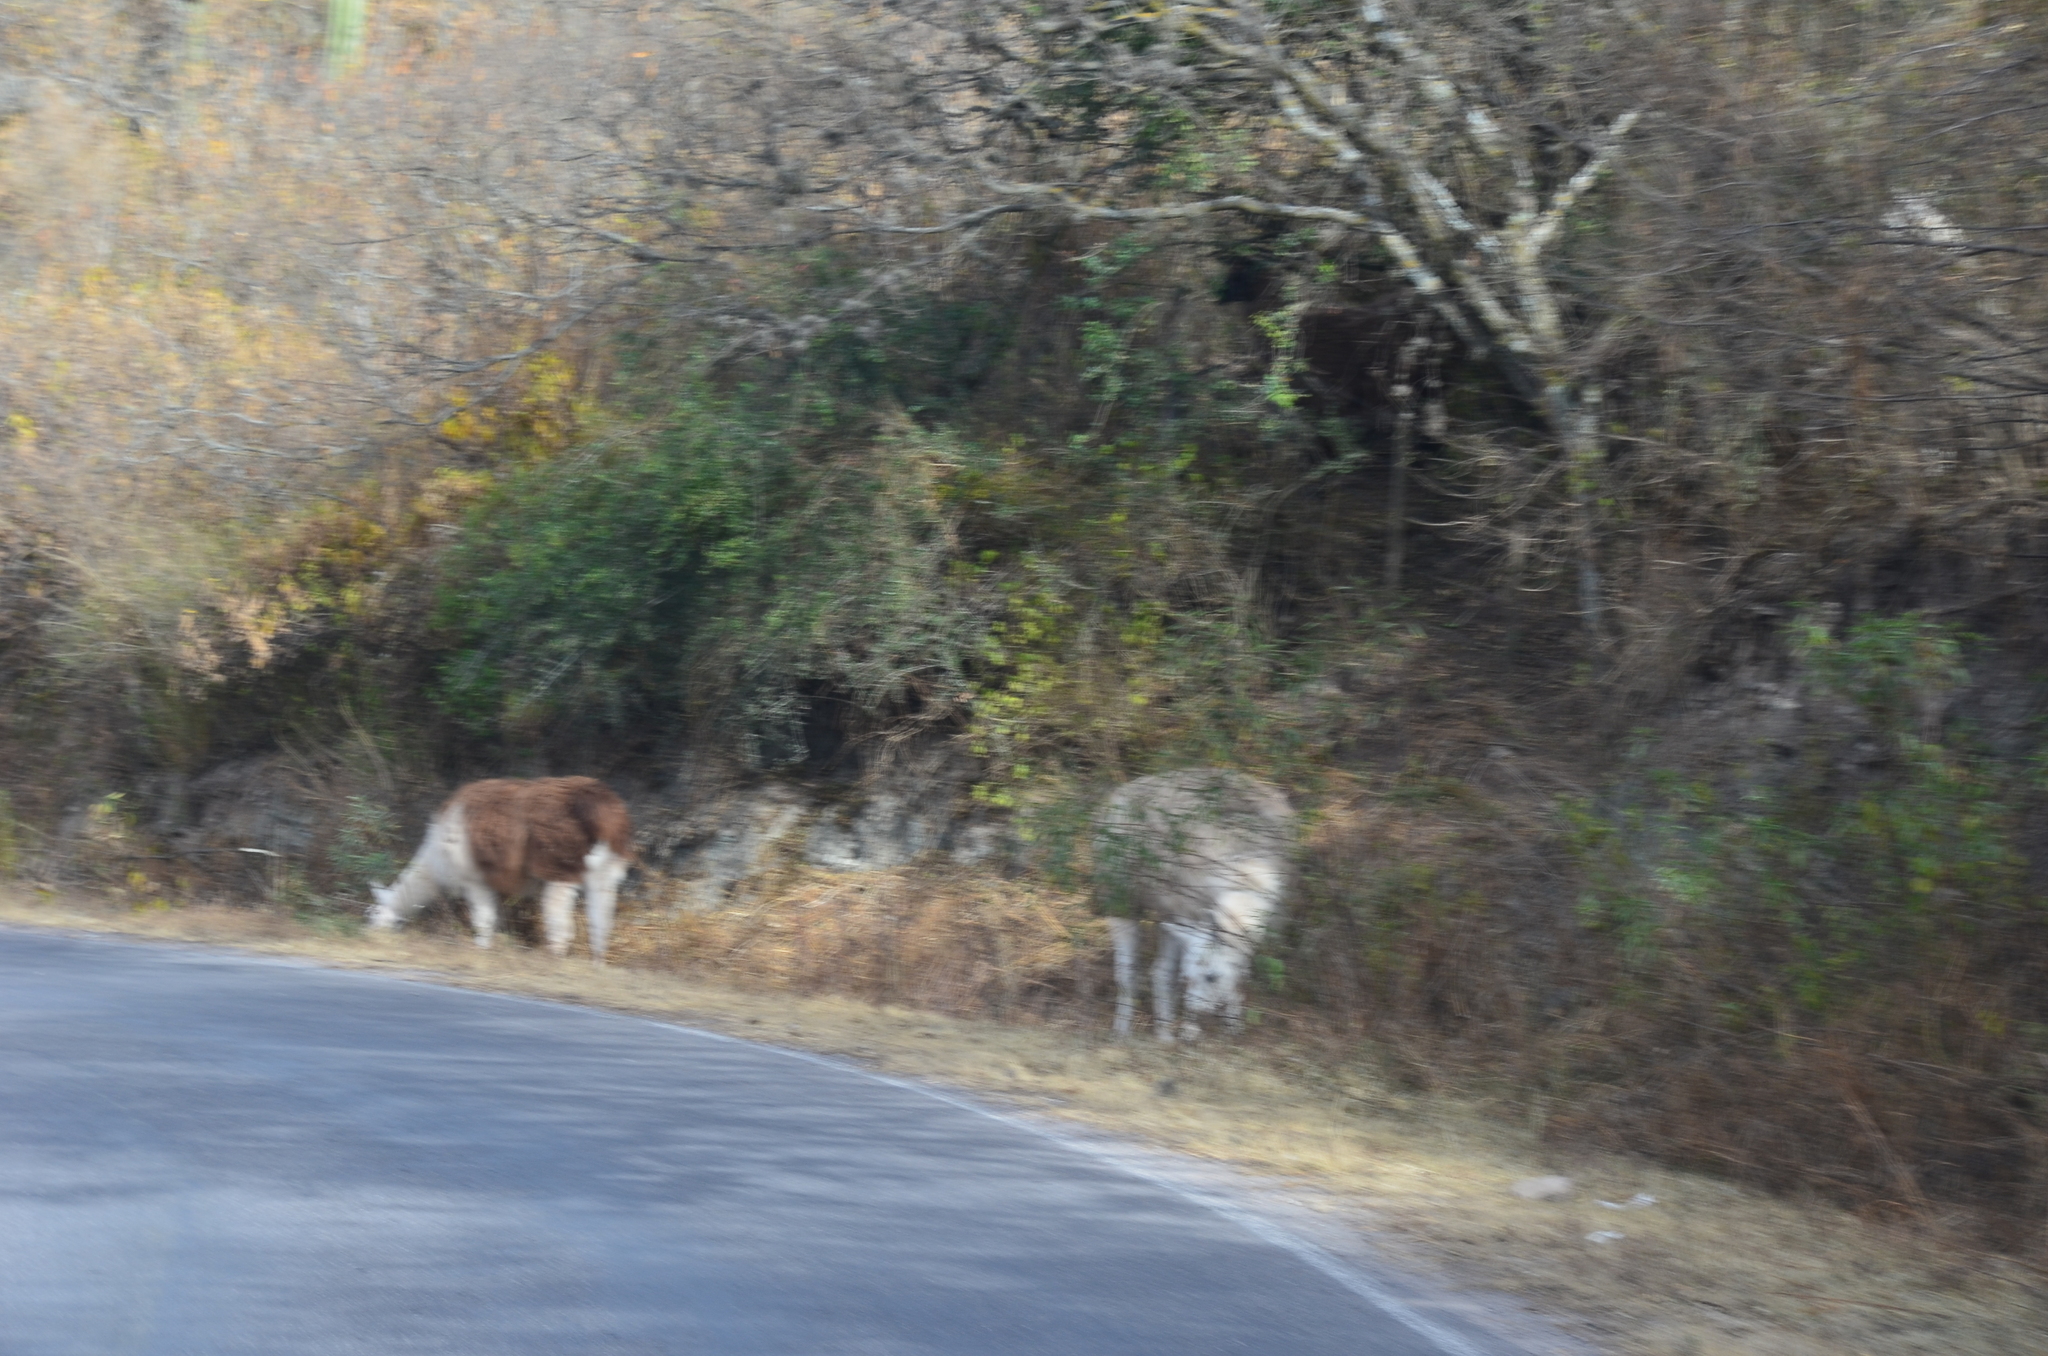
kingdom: Animalia
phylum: Chordata
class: Mammalia
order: Artiodactyla
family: Camelidae
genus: Lama
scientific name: Lama glama
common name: Llama
